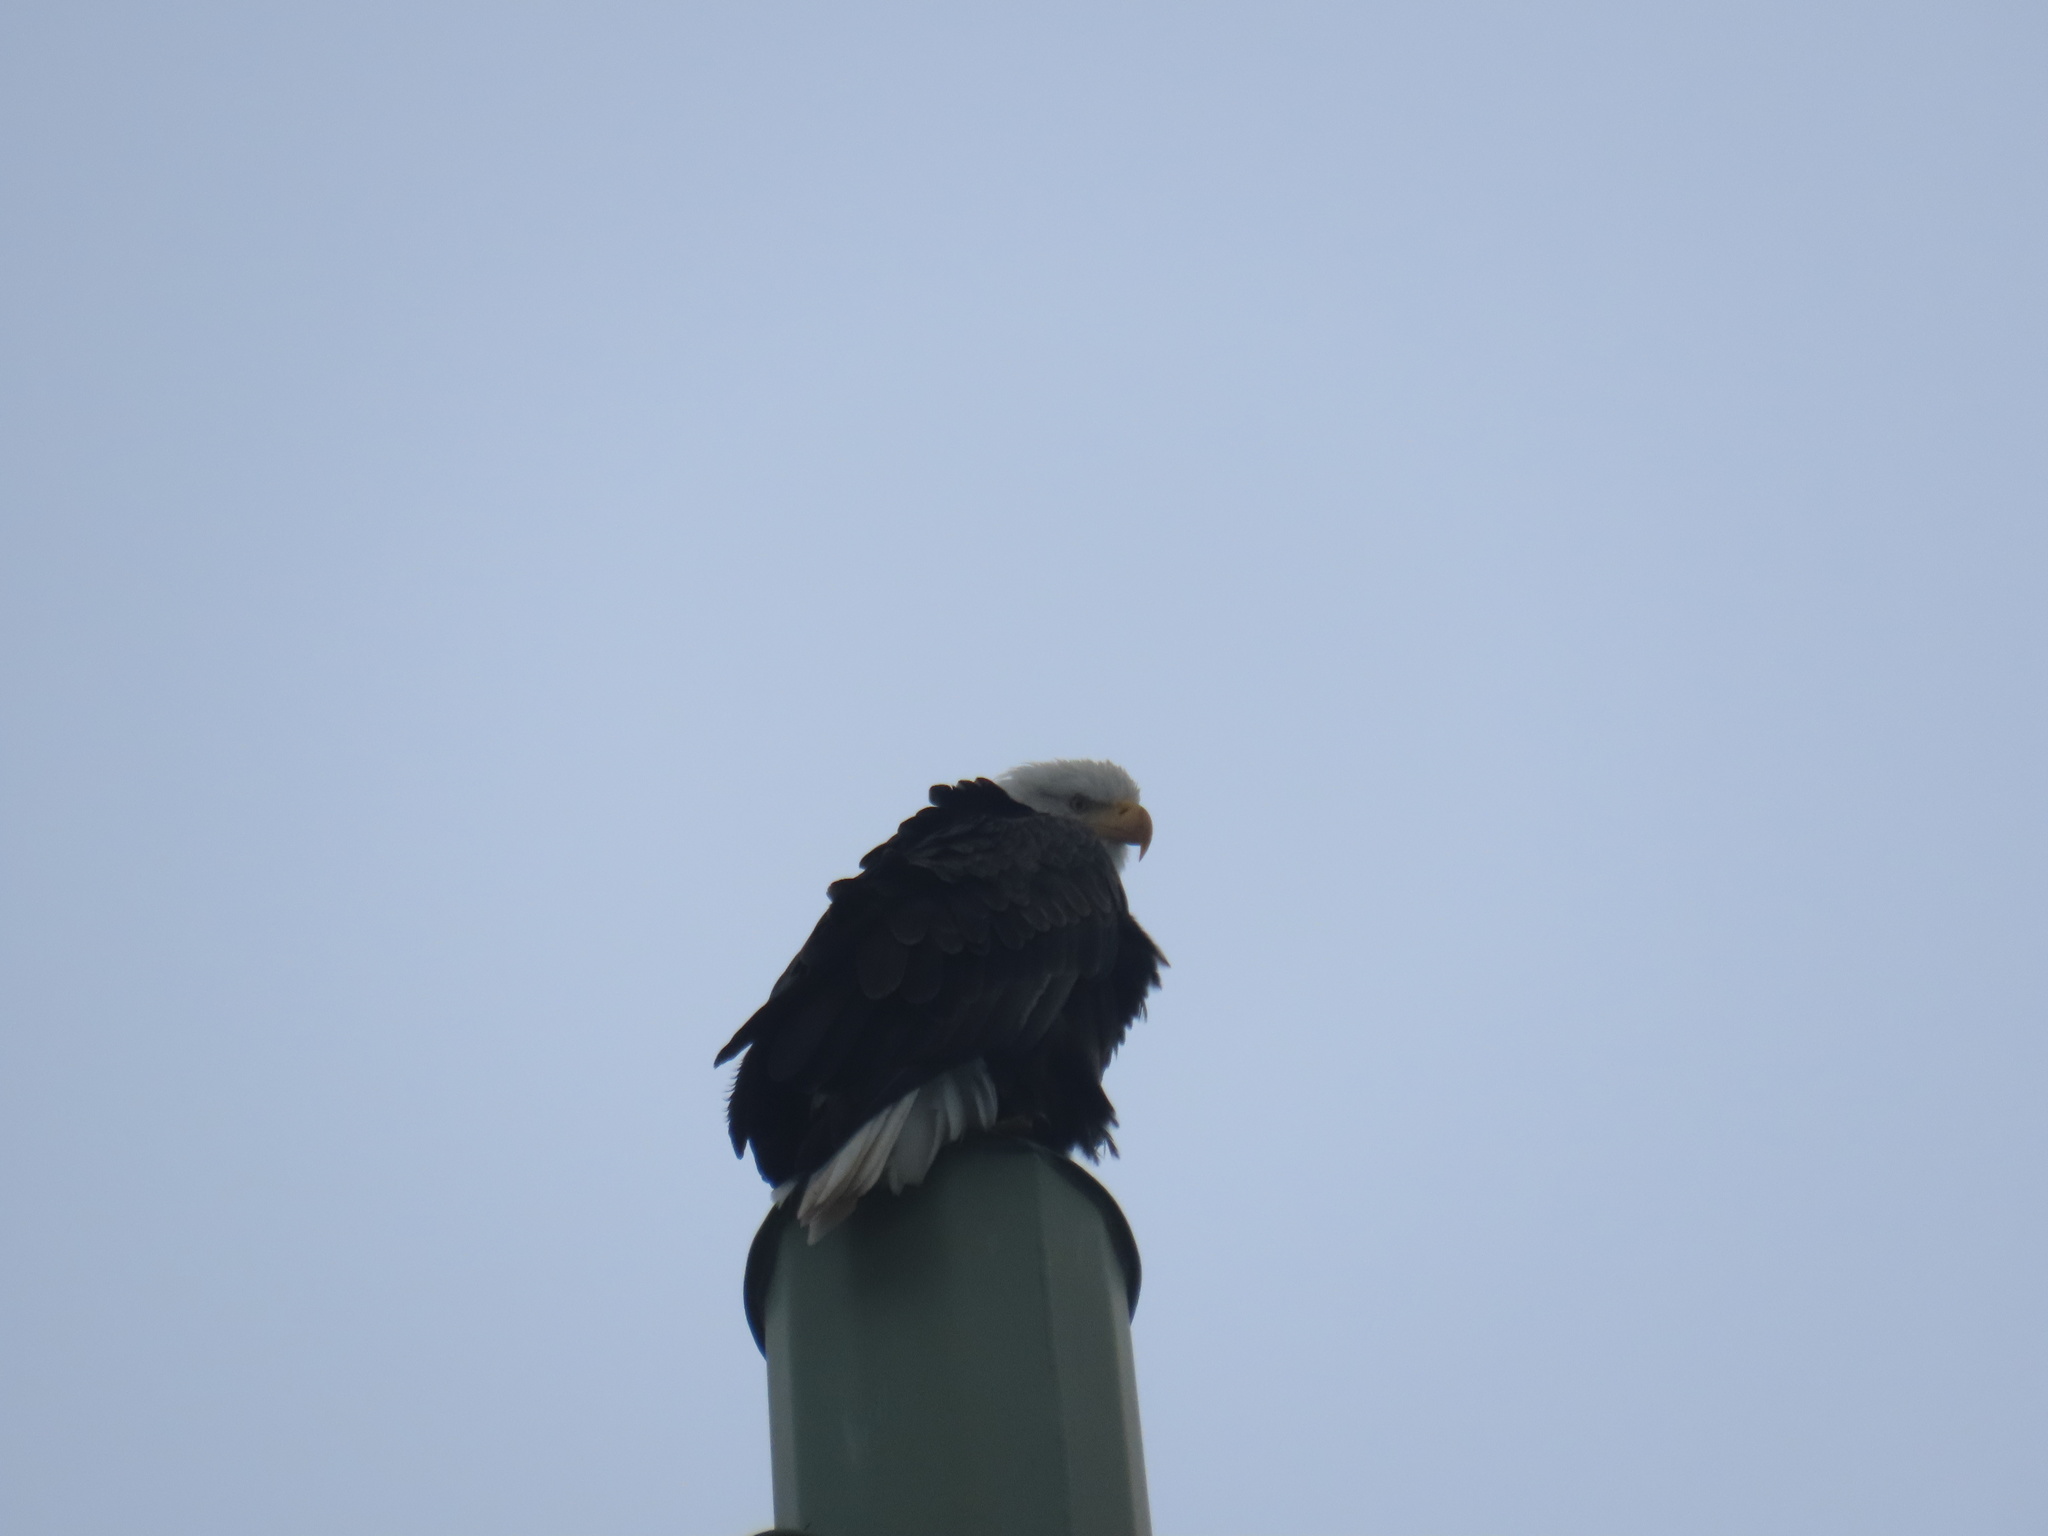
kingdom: Animalia
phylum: Chordata
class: Aves
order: Accipitriformes
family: Accipitridae
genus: Haliaeetus
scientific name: Haliaeetus leucocephalus
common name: Bald eagle
